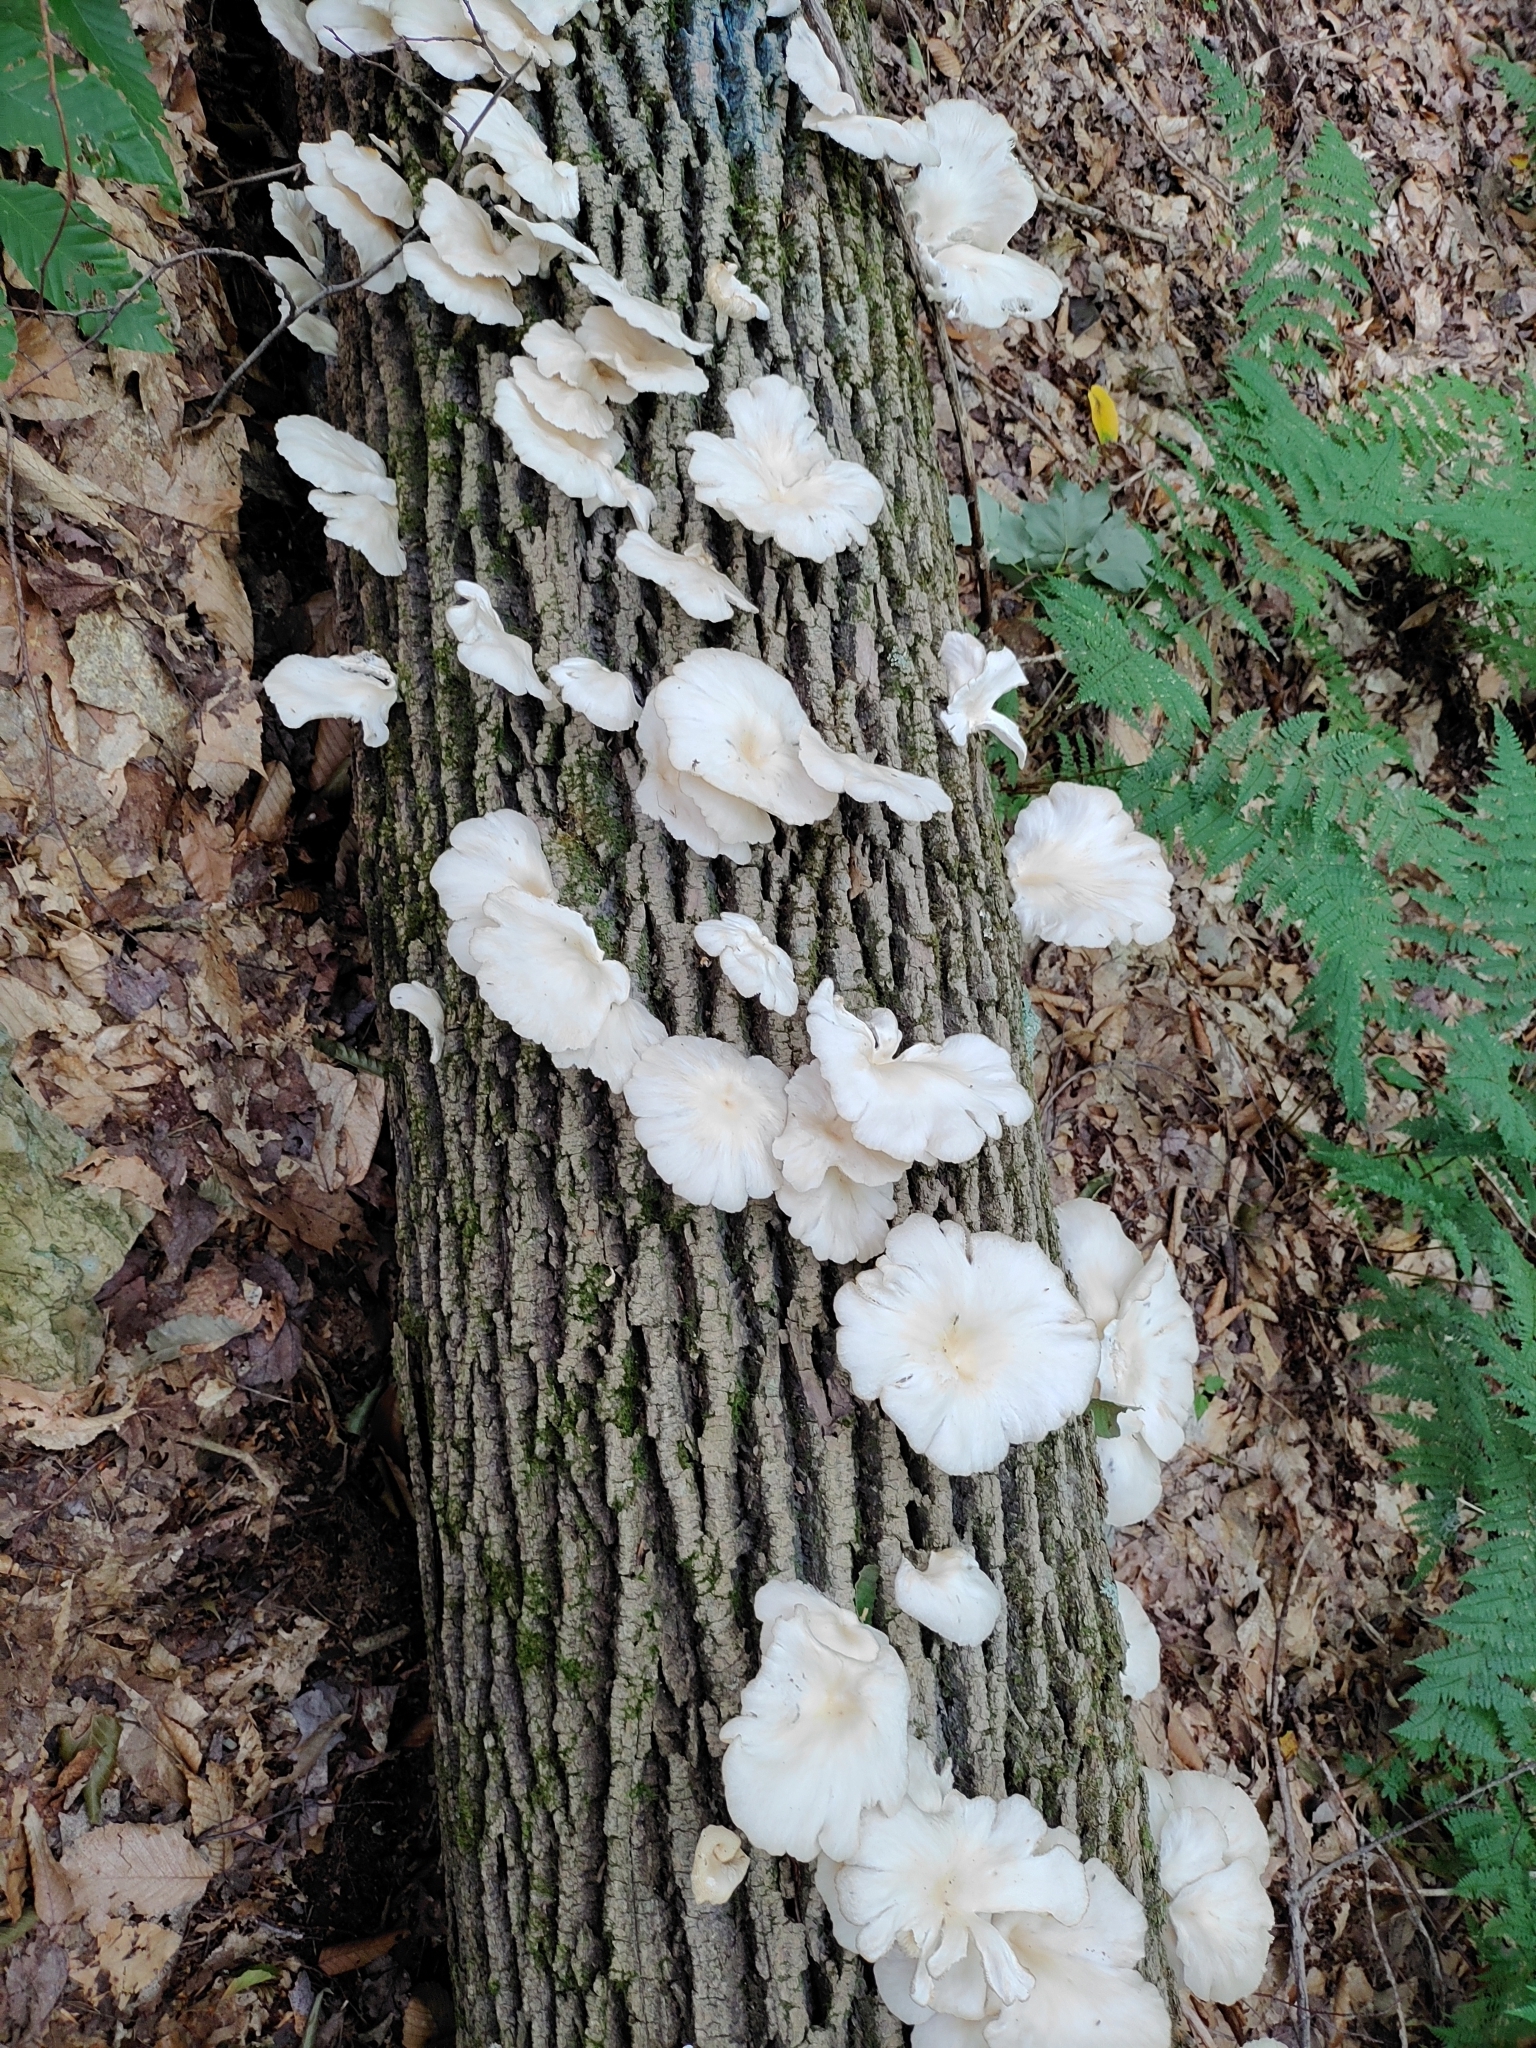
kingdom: Fungi
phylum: Basidiomycota
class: Agaricomycetes
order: Agaricales
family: Pleurotaceae
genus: Pleurotus
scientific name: Pleurotus pulmonarius
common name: Pale oyster
